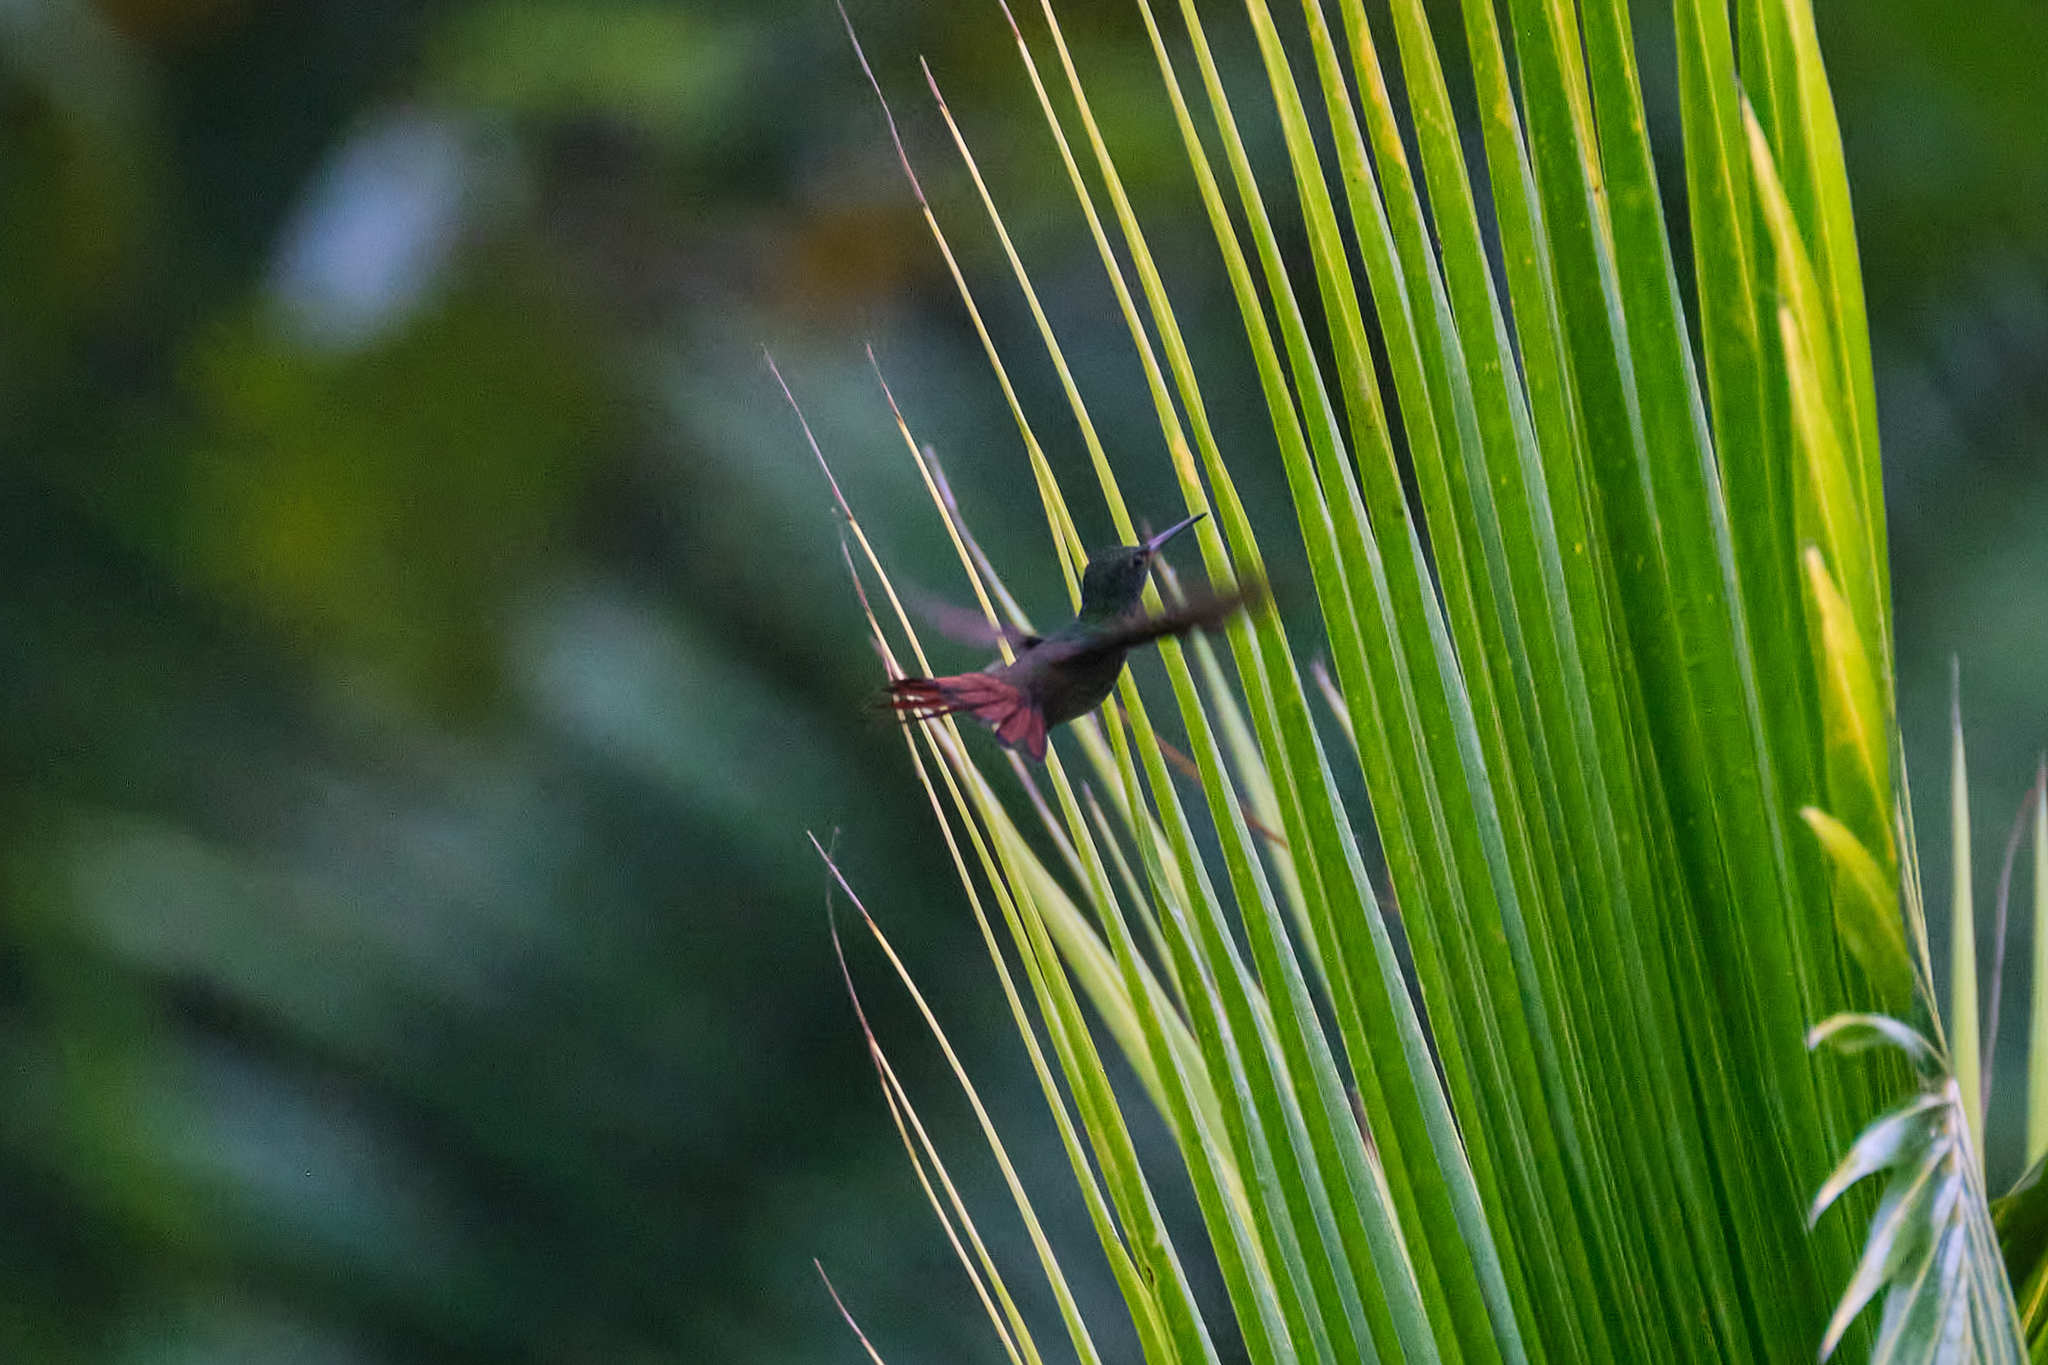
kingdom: Animalia
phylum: Chordata
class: Aves
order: Apodiformes
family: Trochilidae
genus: Amazilia
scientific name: Amazilia tzacatl
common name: Rufous-tailed hummingbird
